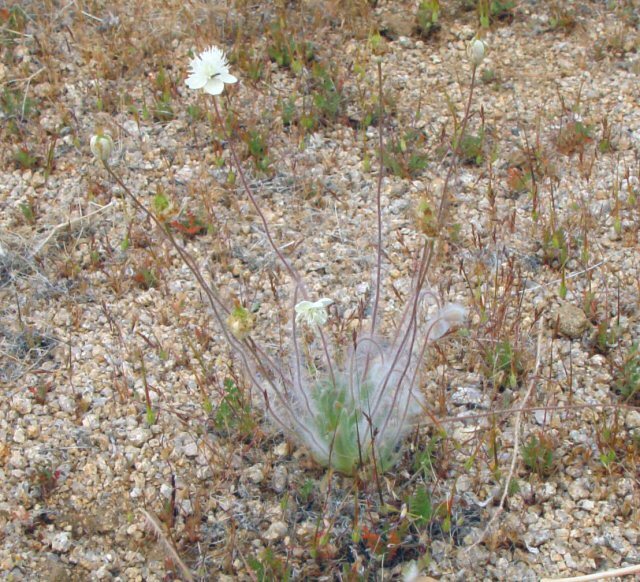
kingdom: Plantae
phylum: Tracheophyta
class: Magnoliopsida
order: Ranunculales
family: Papaveraceae
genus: Platystemon
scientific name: Platystemon californicus
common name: Cream-cups
